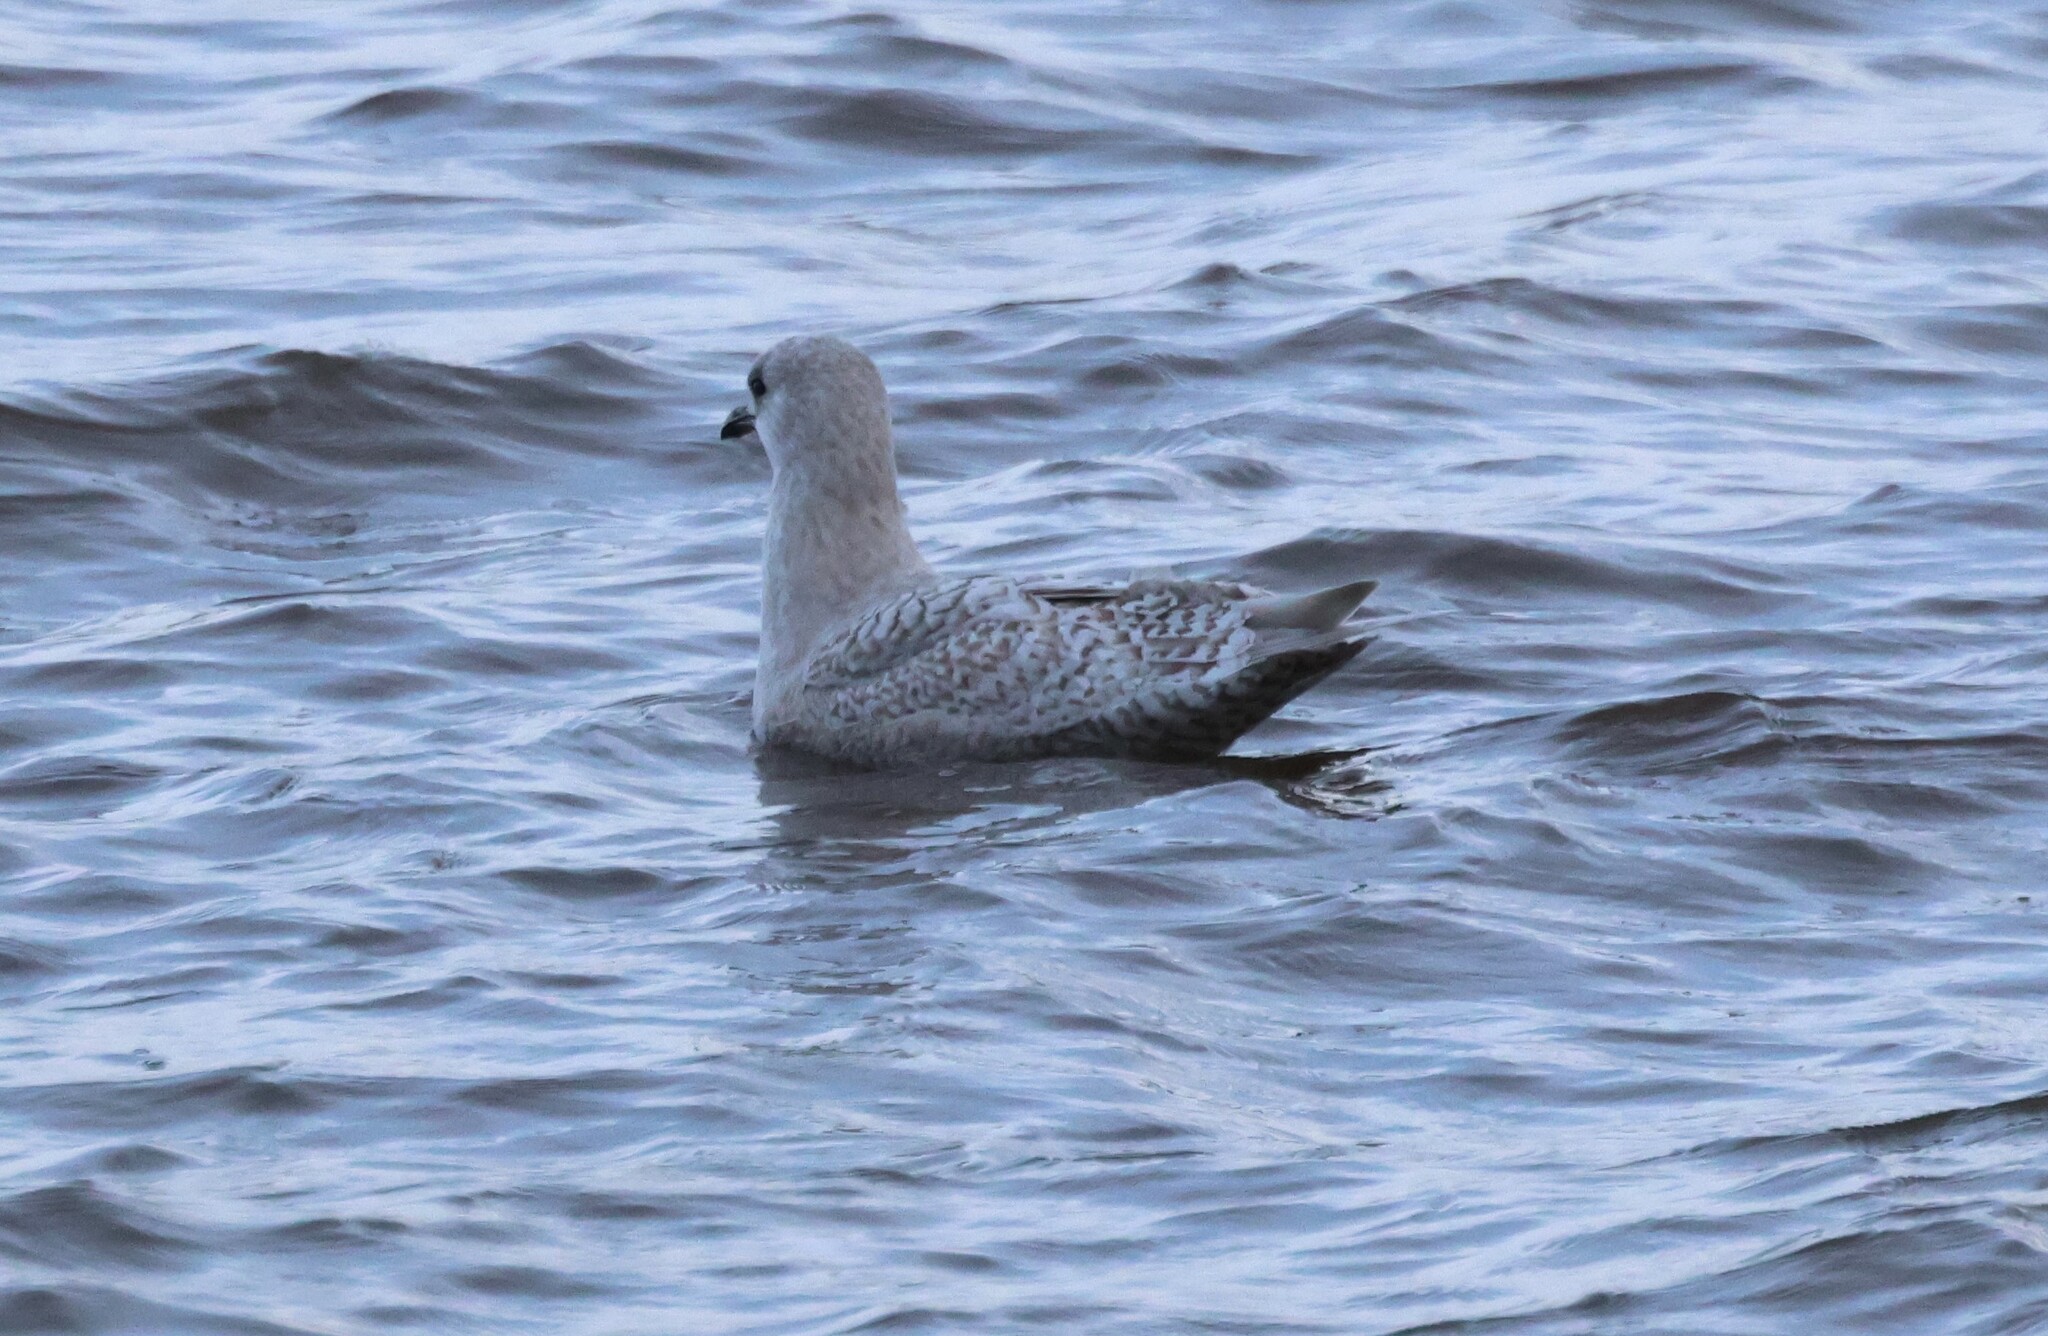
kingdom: Animalia
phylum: Chordata
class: Aves
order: Charadriiformes
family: Laridae
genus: Larus
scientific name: Larus glaucoides
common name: Iceland gull
